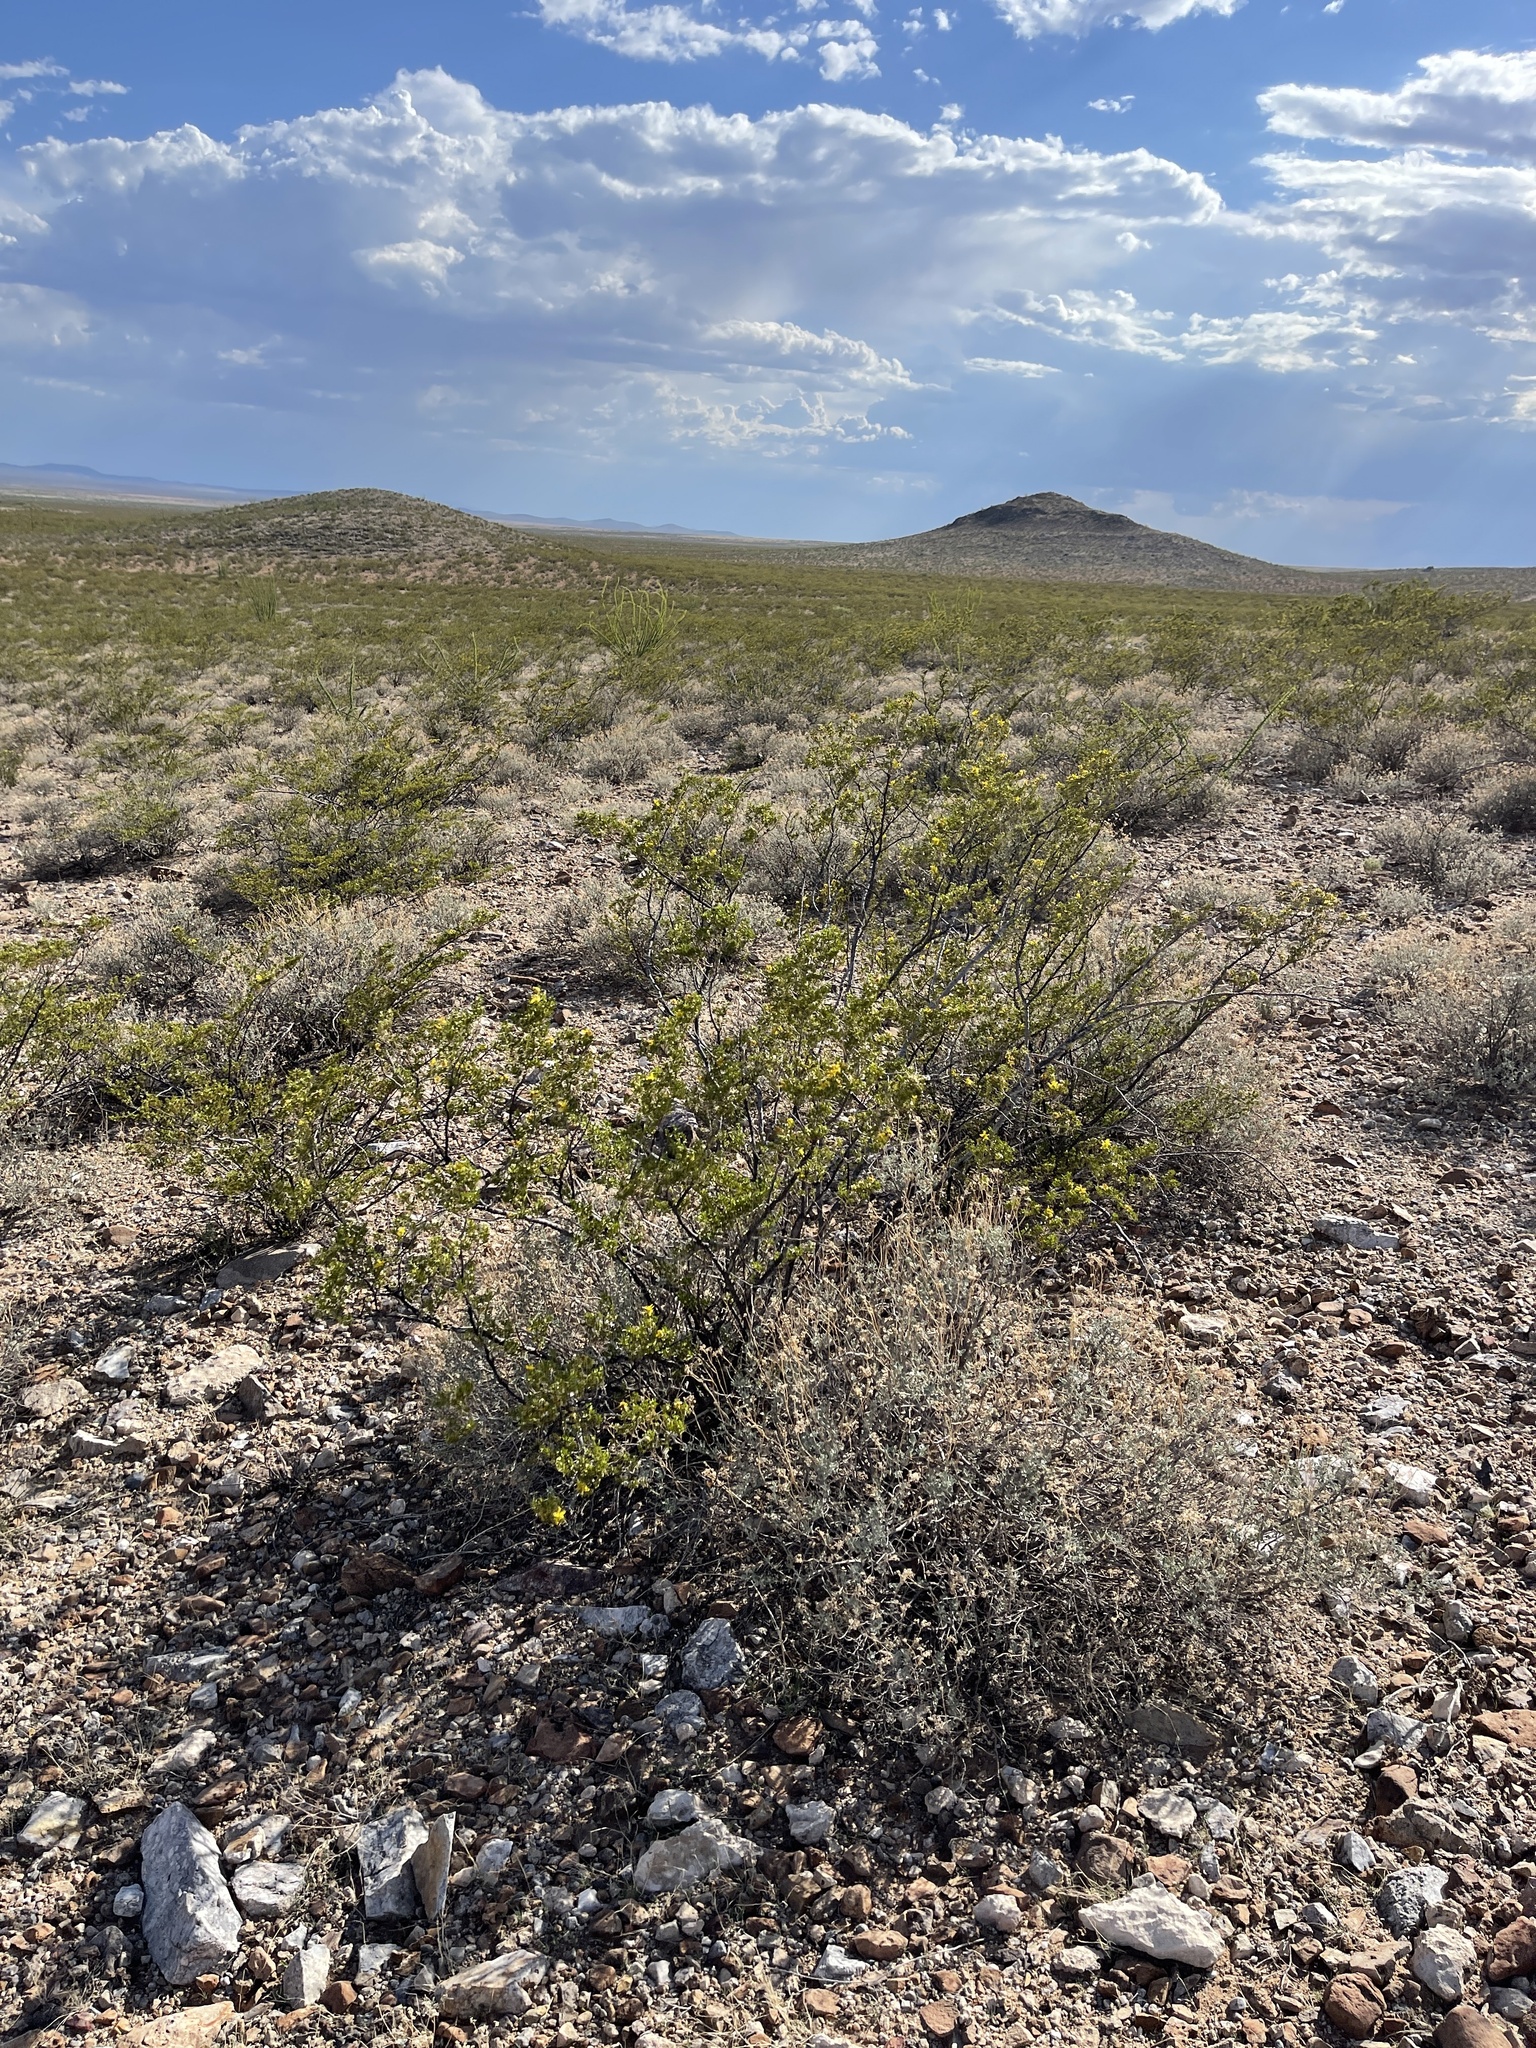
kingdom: Plantae
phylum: Tracheophyta
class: Magnoliopsida
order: Zygophyllales
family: Zygophyllaceae
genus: Larrea
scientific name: Larrea tridentata
